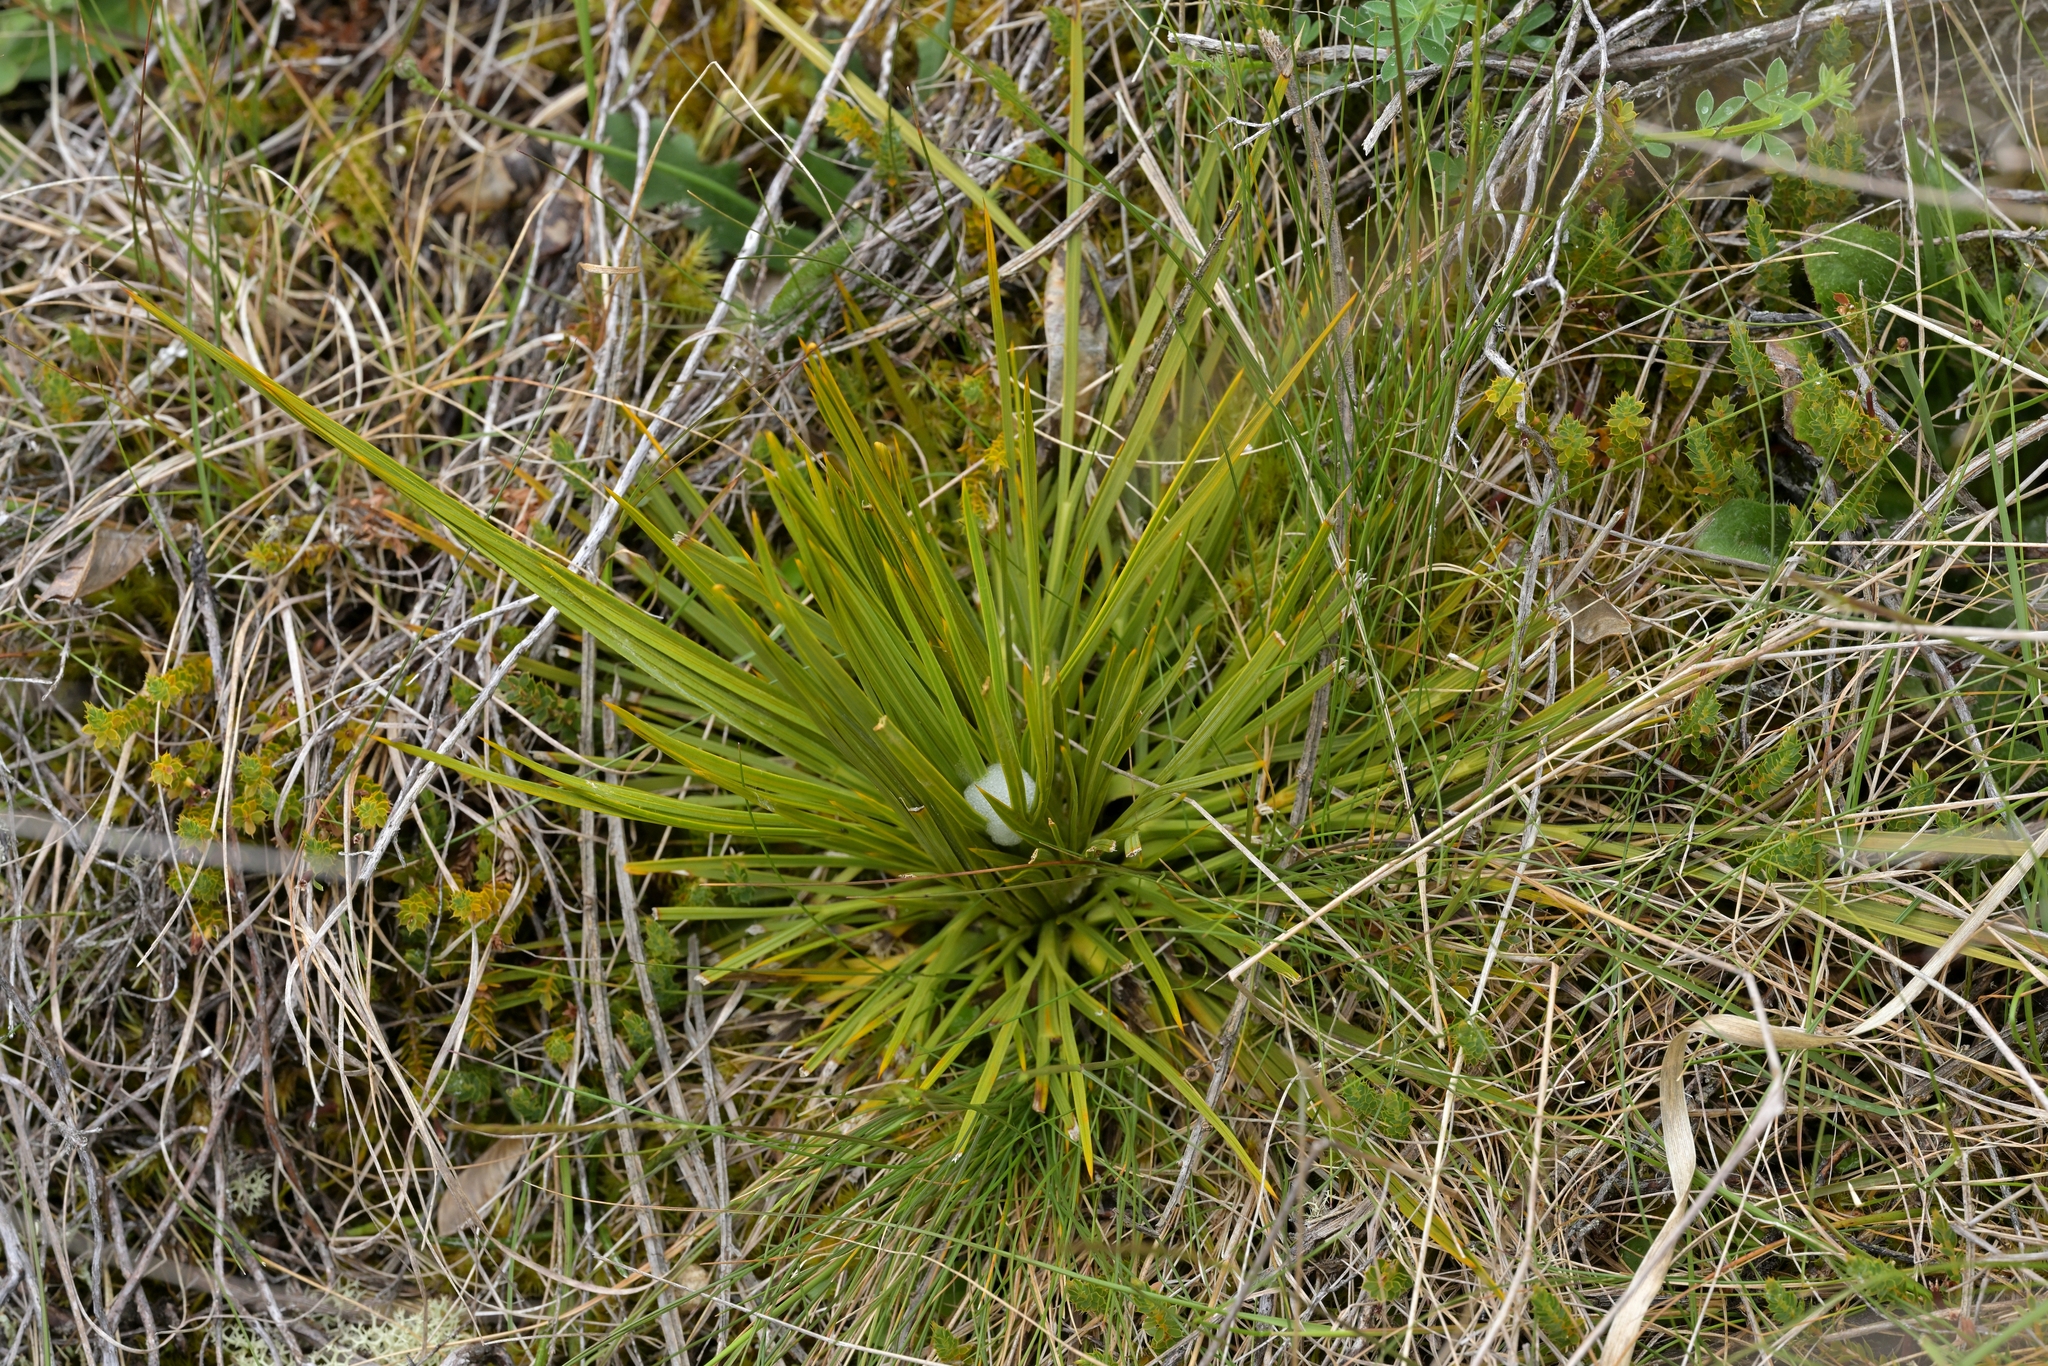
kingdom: Plantae
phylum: Tracheophyta
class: Magnoliopsida
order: Apiales
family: Apiaceae
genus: Aciphylla
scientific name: Aciphylla squarrosa
